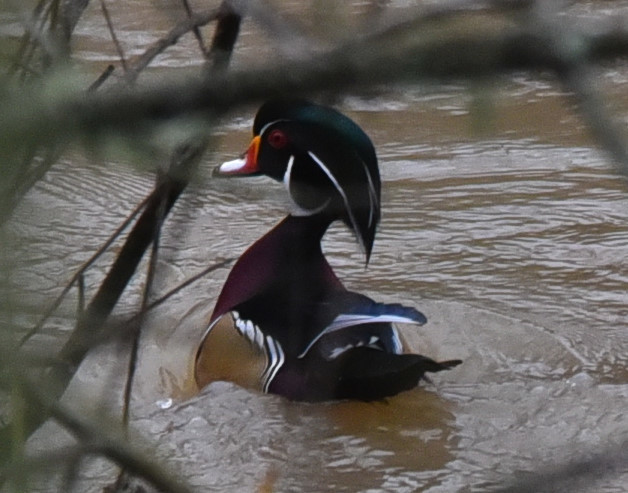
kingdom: Animalia
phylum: Chordata
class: Aves
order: Anseriformes
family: Anatidae
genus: Aix
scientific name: Aix sponsa
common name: Wood duck
